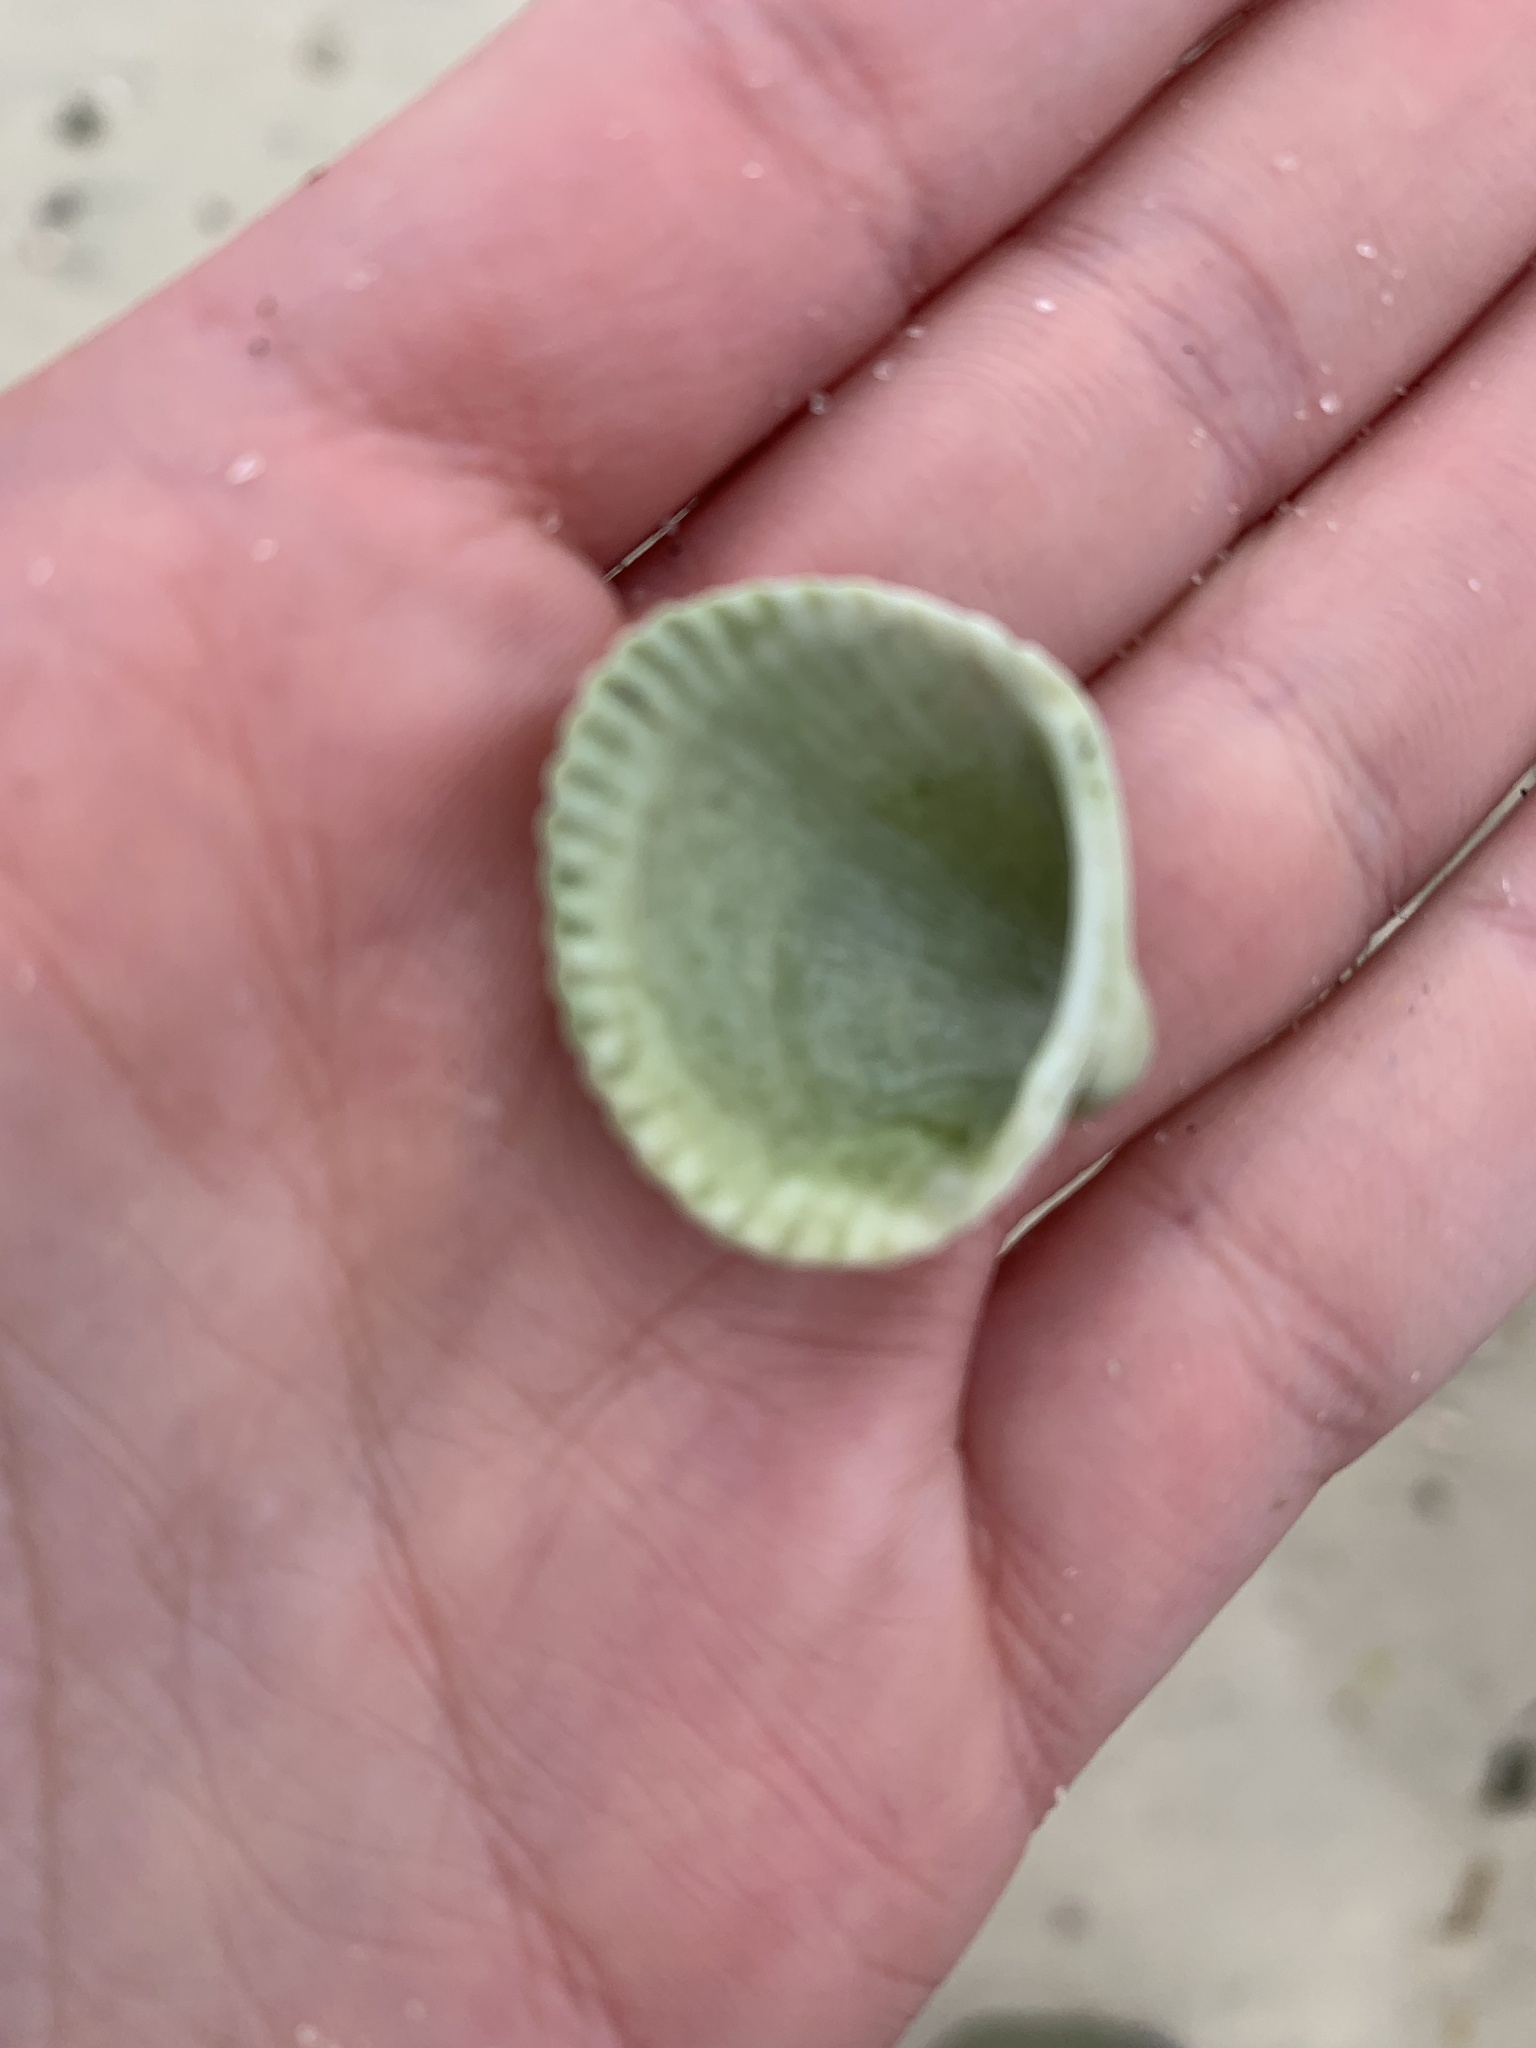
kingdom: Animalia
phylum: Mollusca
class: Bivalvia
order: Arcida
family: Arcidae
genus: Lunarca
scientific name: Lunarca ovalis
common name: Blood ark
